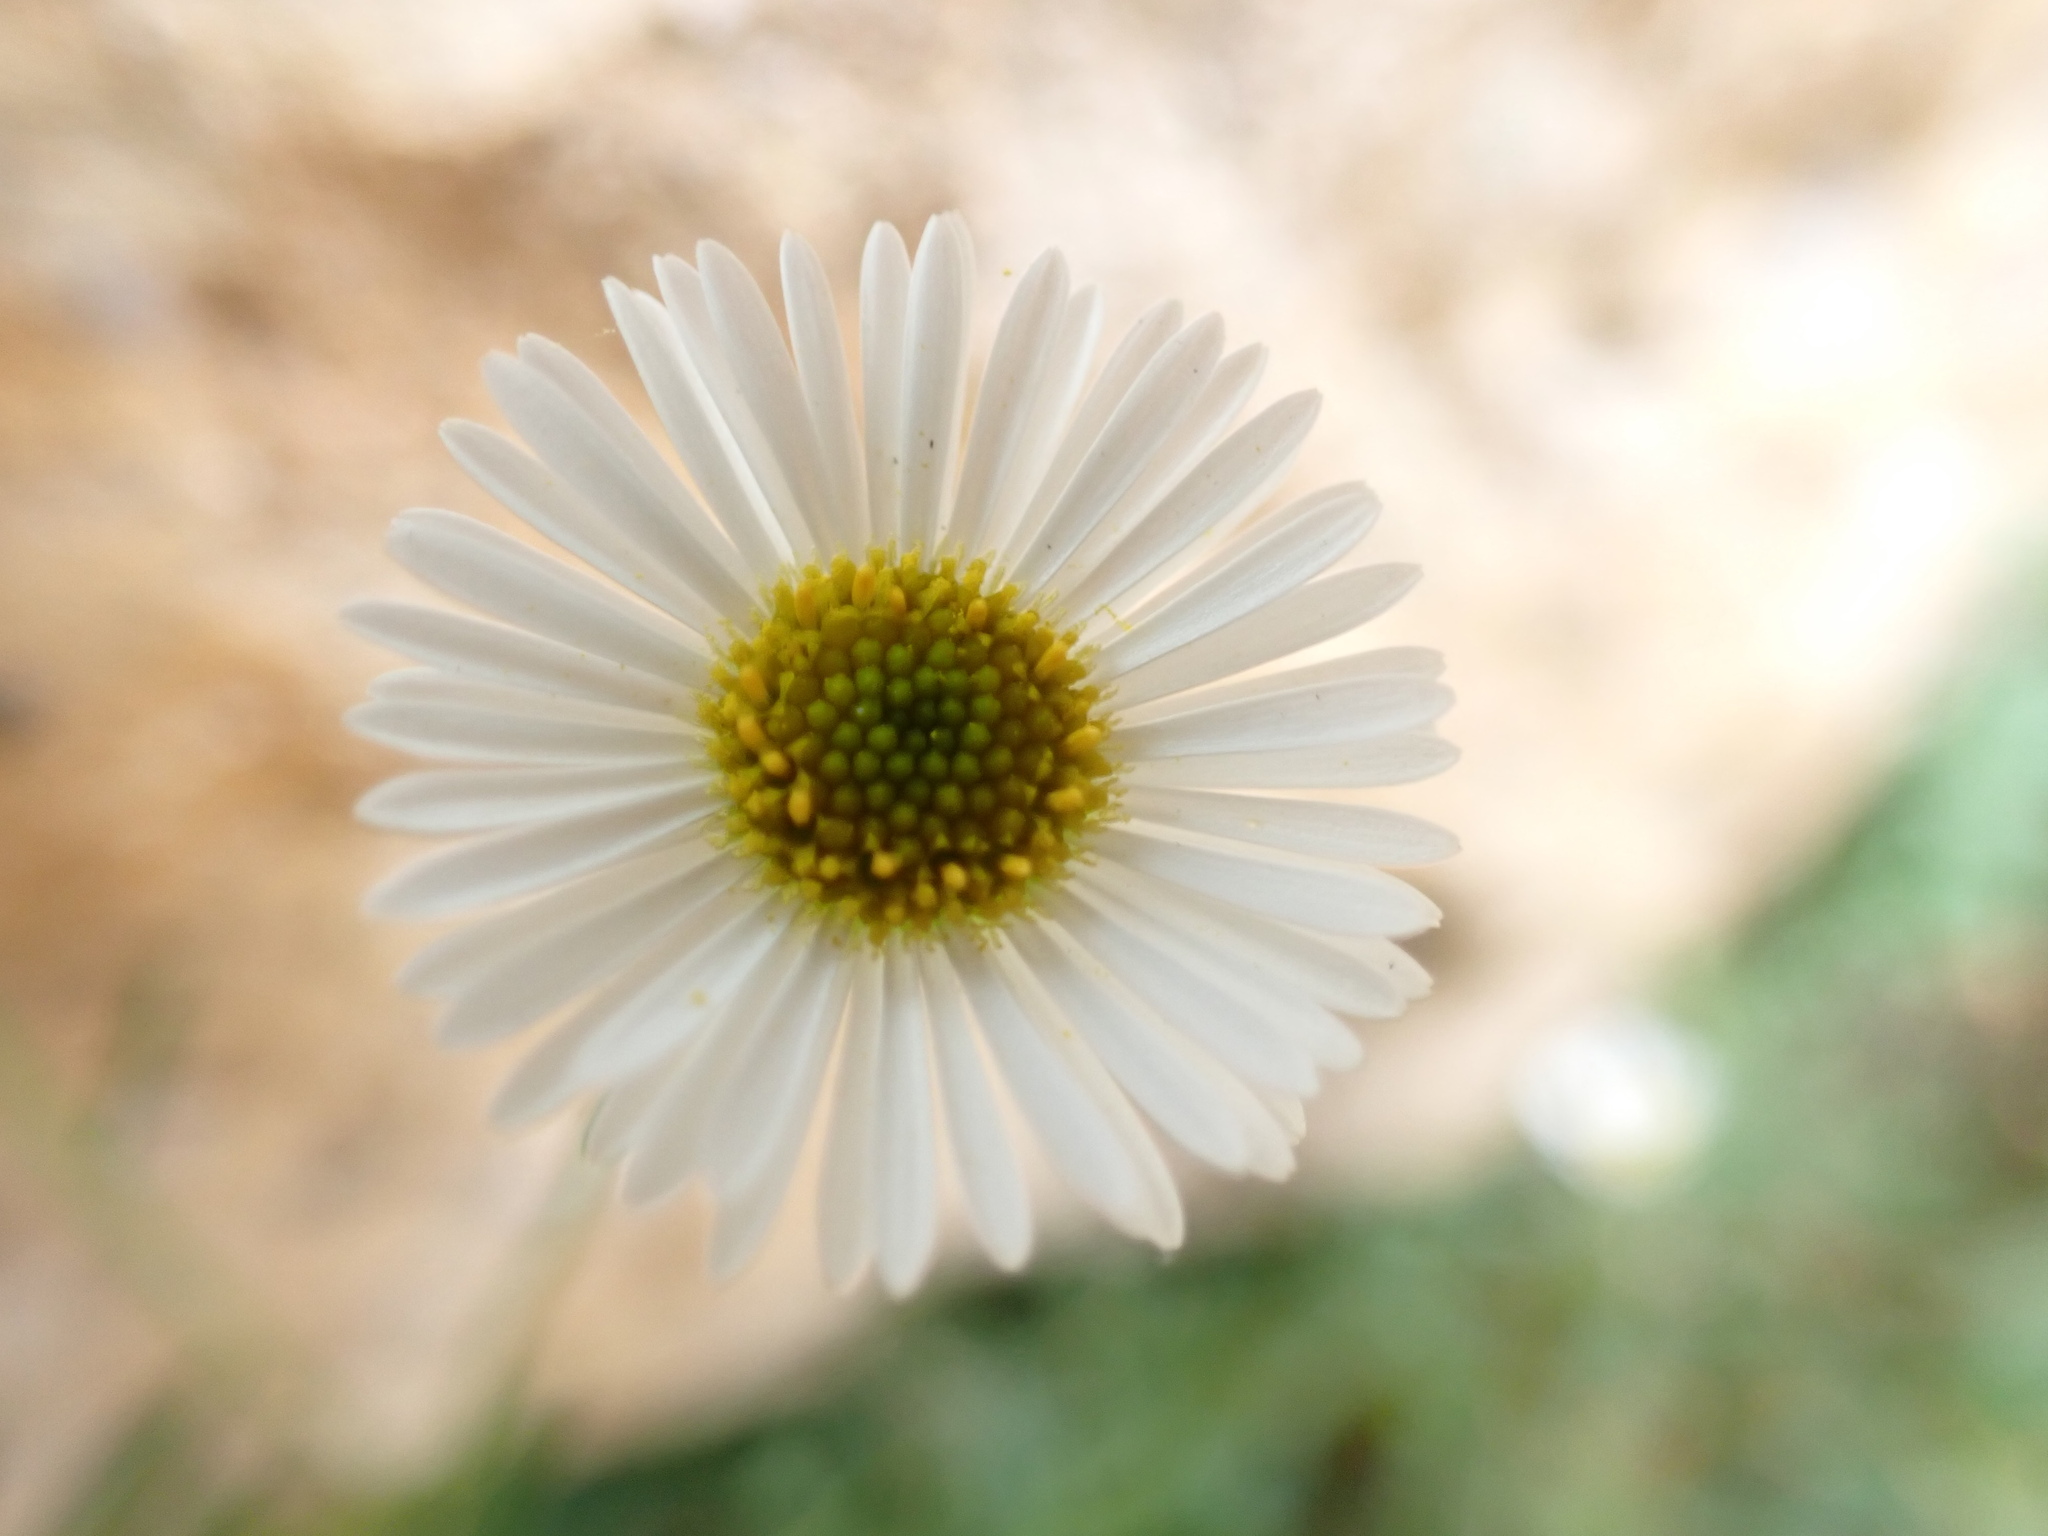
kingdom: Plantae
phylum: Tracheophyta
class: Magnoliopsida
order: Asterales
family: Asteraceae
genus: Erigeron
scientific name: Erigeron karvinskianus
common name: Mexican fleabane
